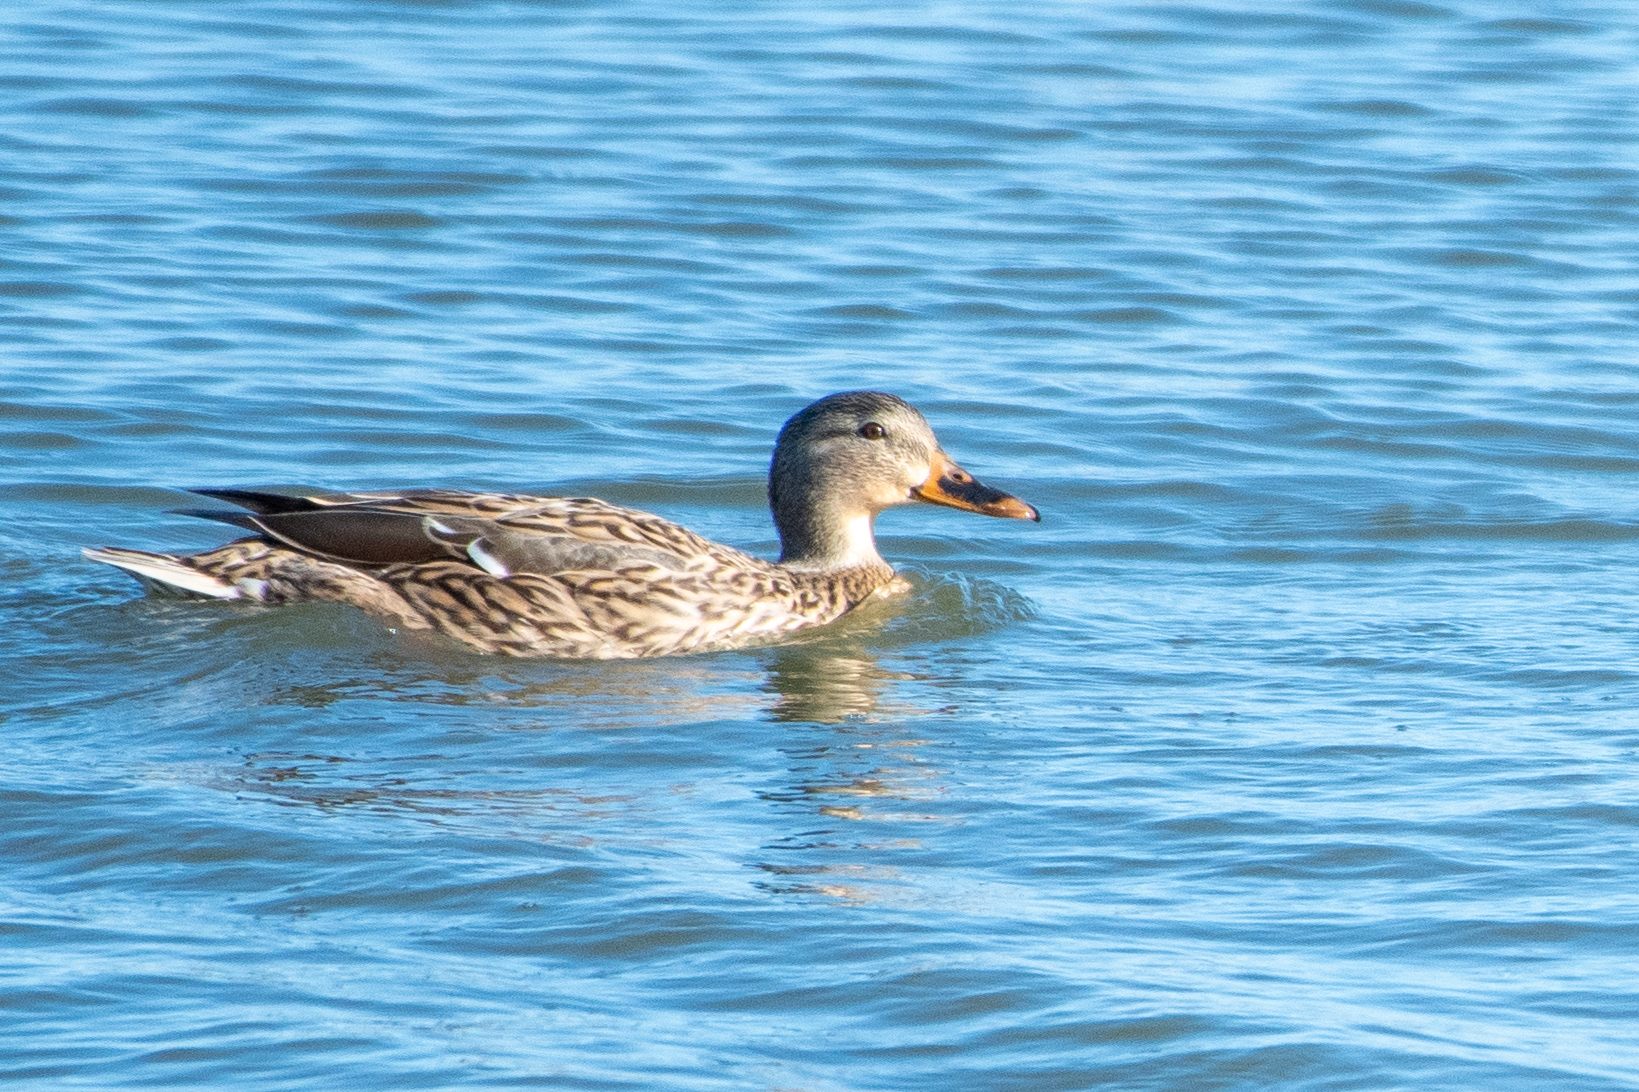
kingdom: Animalia
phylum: Chordata
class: Aves
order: Anseriformes
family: Anatidae
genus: Anas
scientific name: Anas platyrhynchos
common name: Mallard
